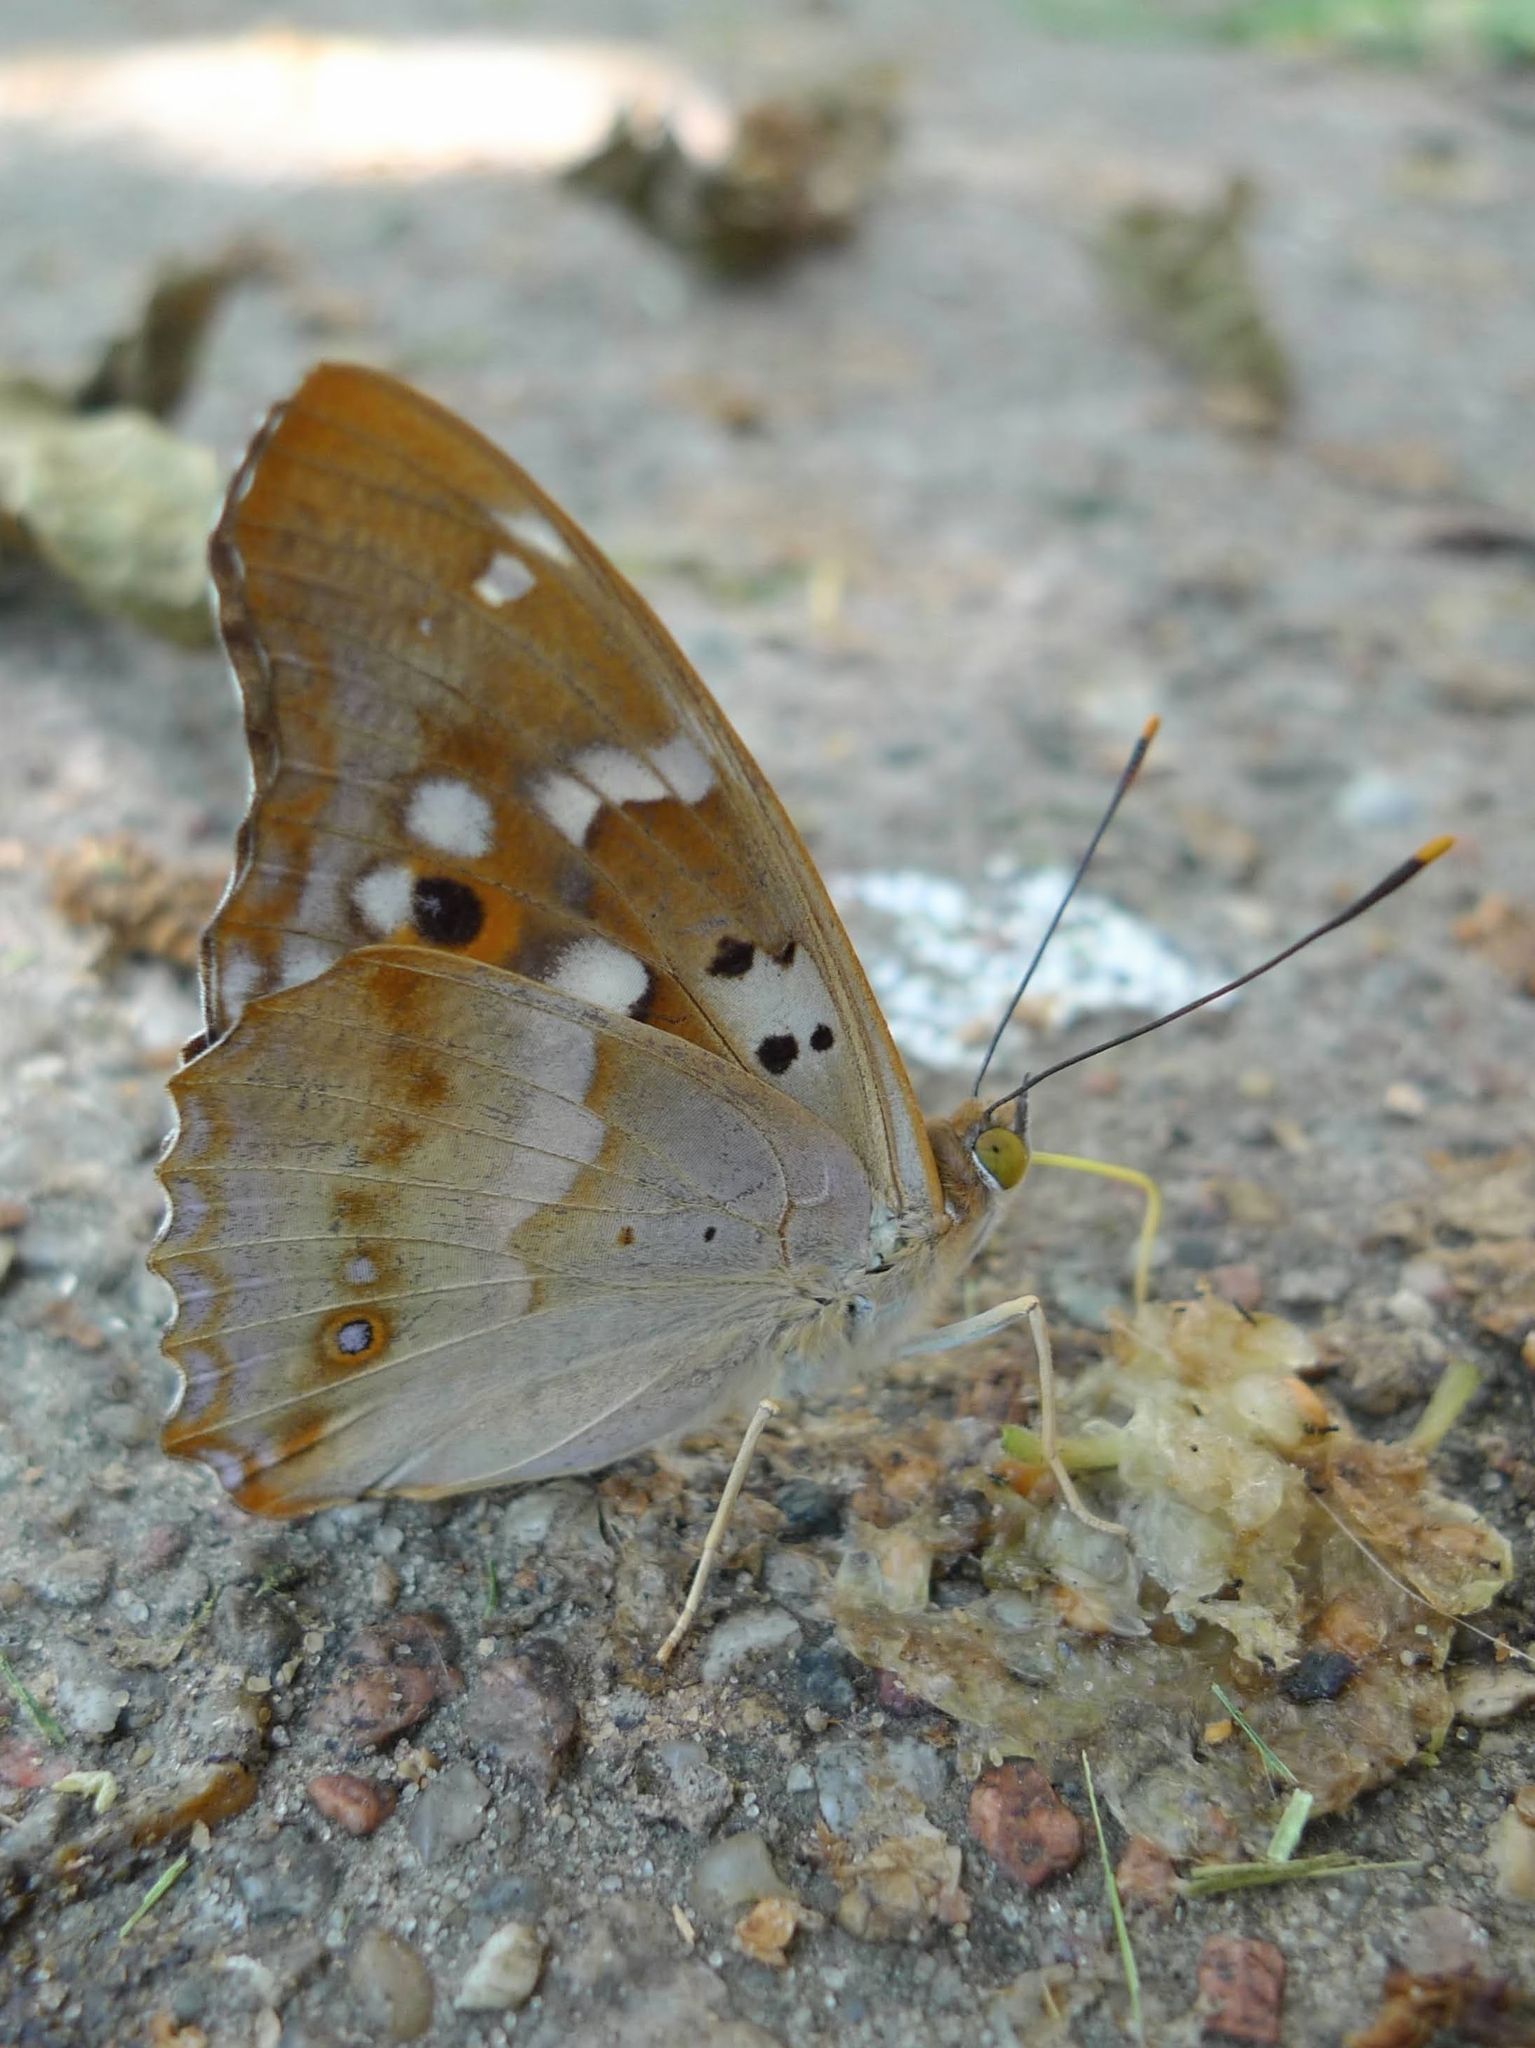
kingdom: Animalia
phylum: Arthropoda
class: Insecta
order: Lepidoptera
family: Nymphalidae
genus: Apatura
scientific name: Apatura ilia
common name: Lesser purple emperor
